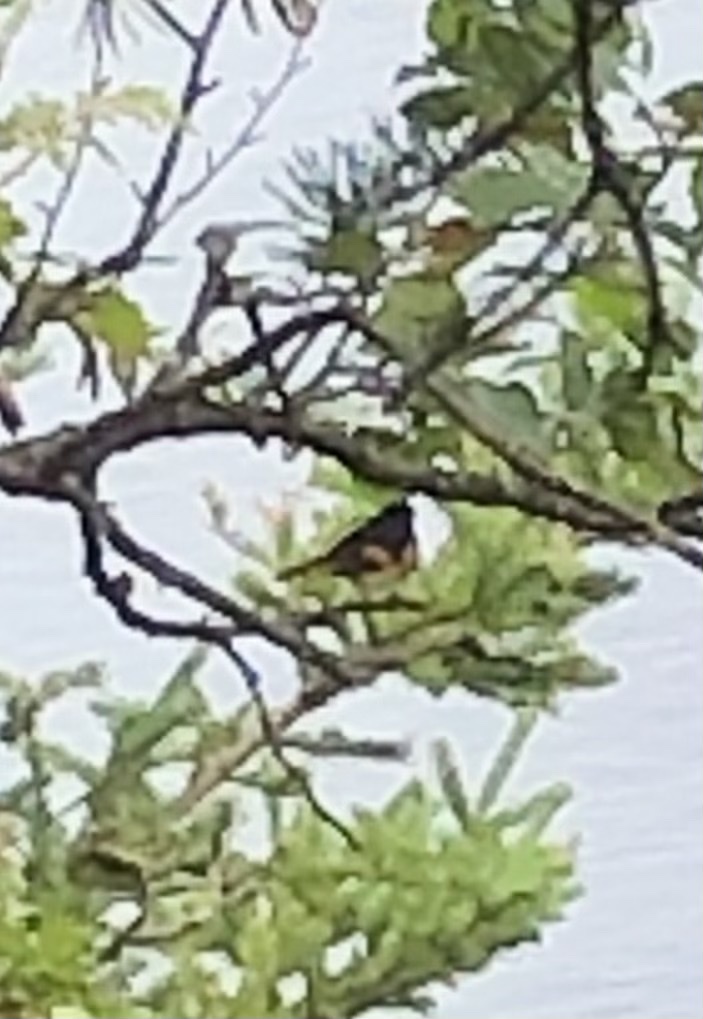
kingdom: Animalia
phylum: Chordata
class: Aves
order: Passeriformes
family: Parulidae
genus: Setophaga
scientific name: Setophaga ruticilla
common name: American redstart
